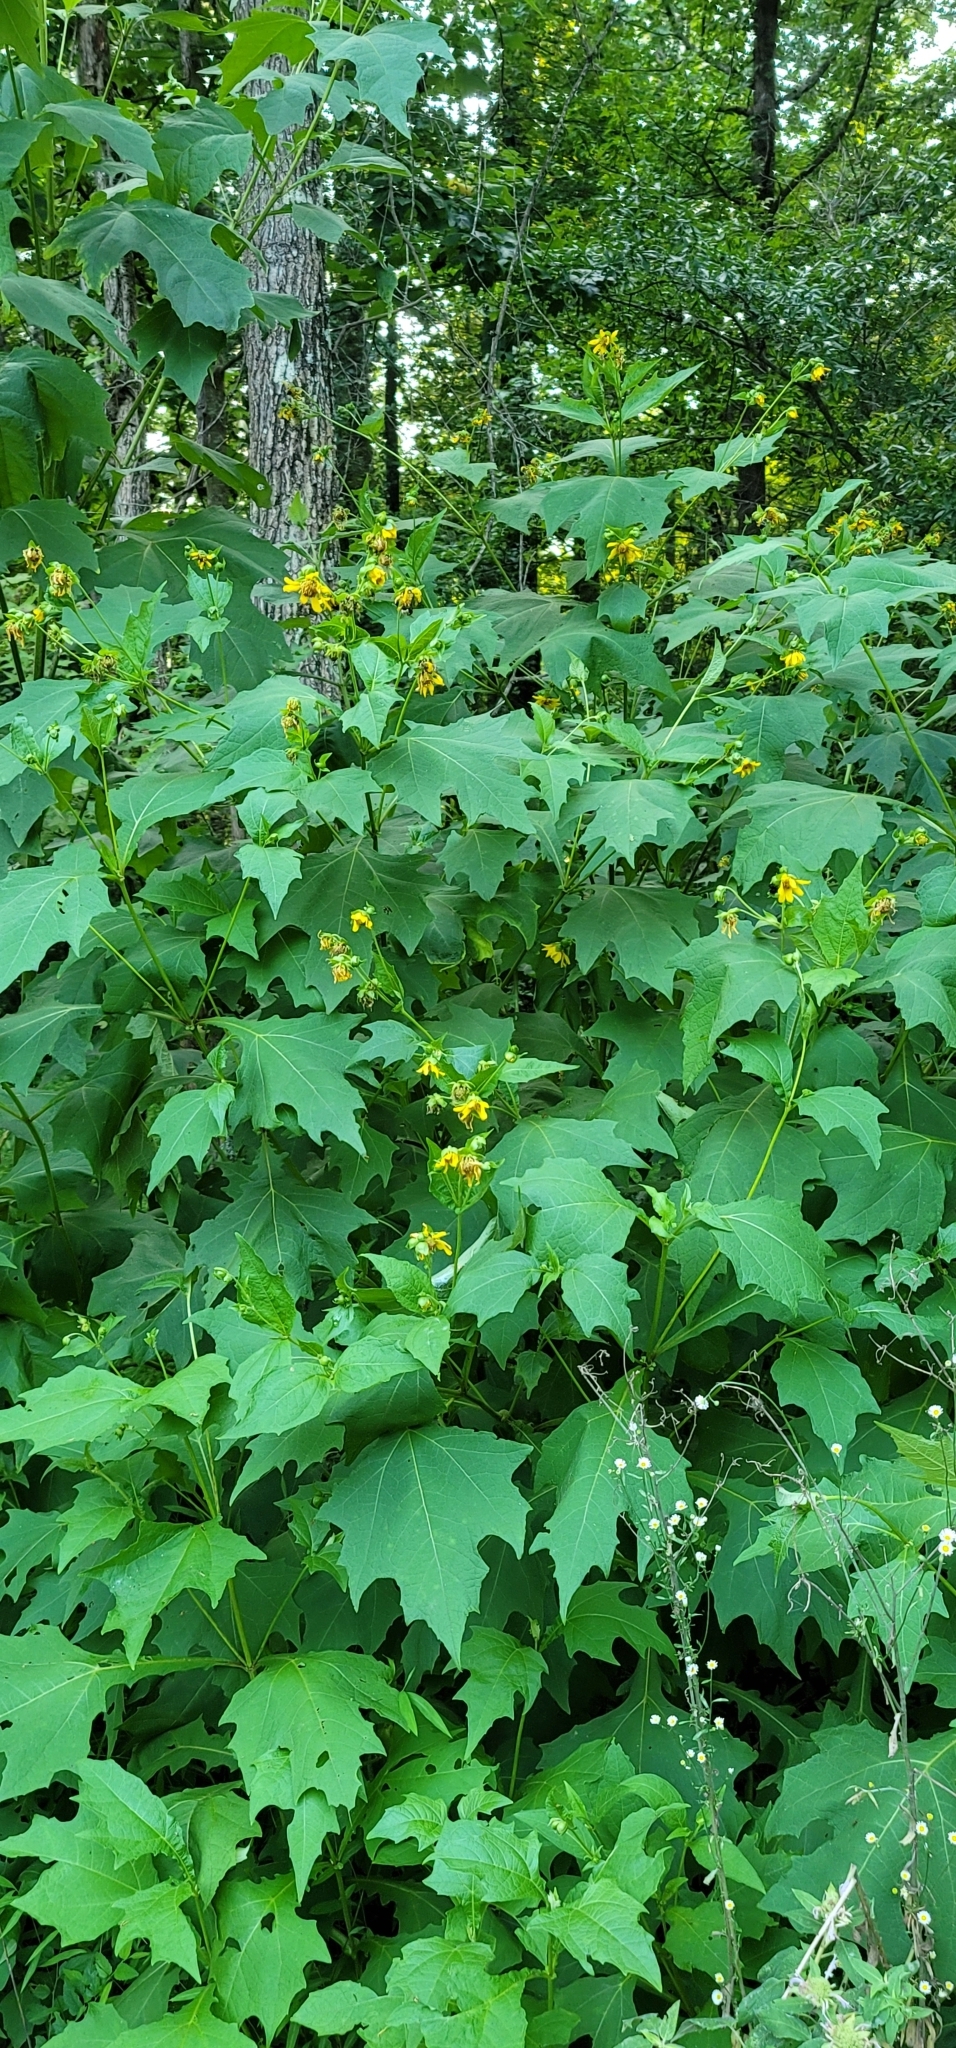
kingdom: Plantae
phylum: Tracheophyta
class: Magnoliopsida
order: Asterales
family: Asteraceae
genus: Smallanthus
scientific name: Smallanthus uvedalia
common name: Bear's-foot
